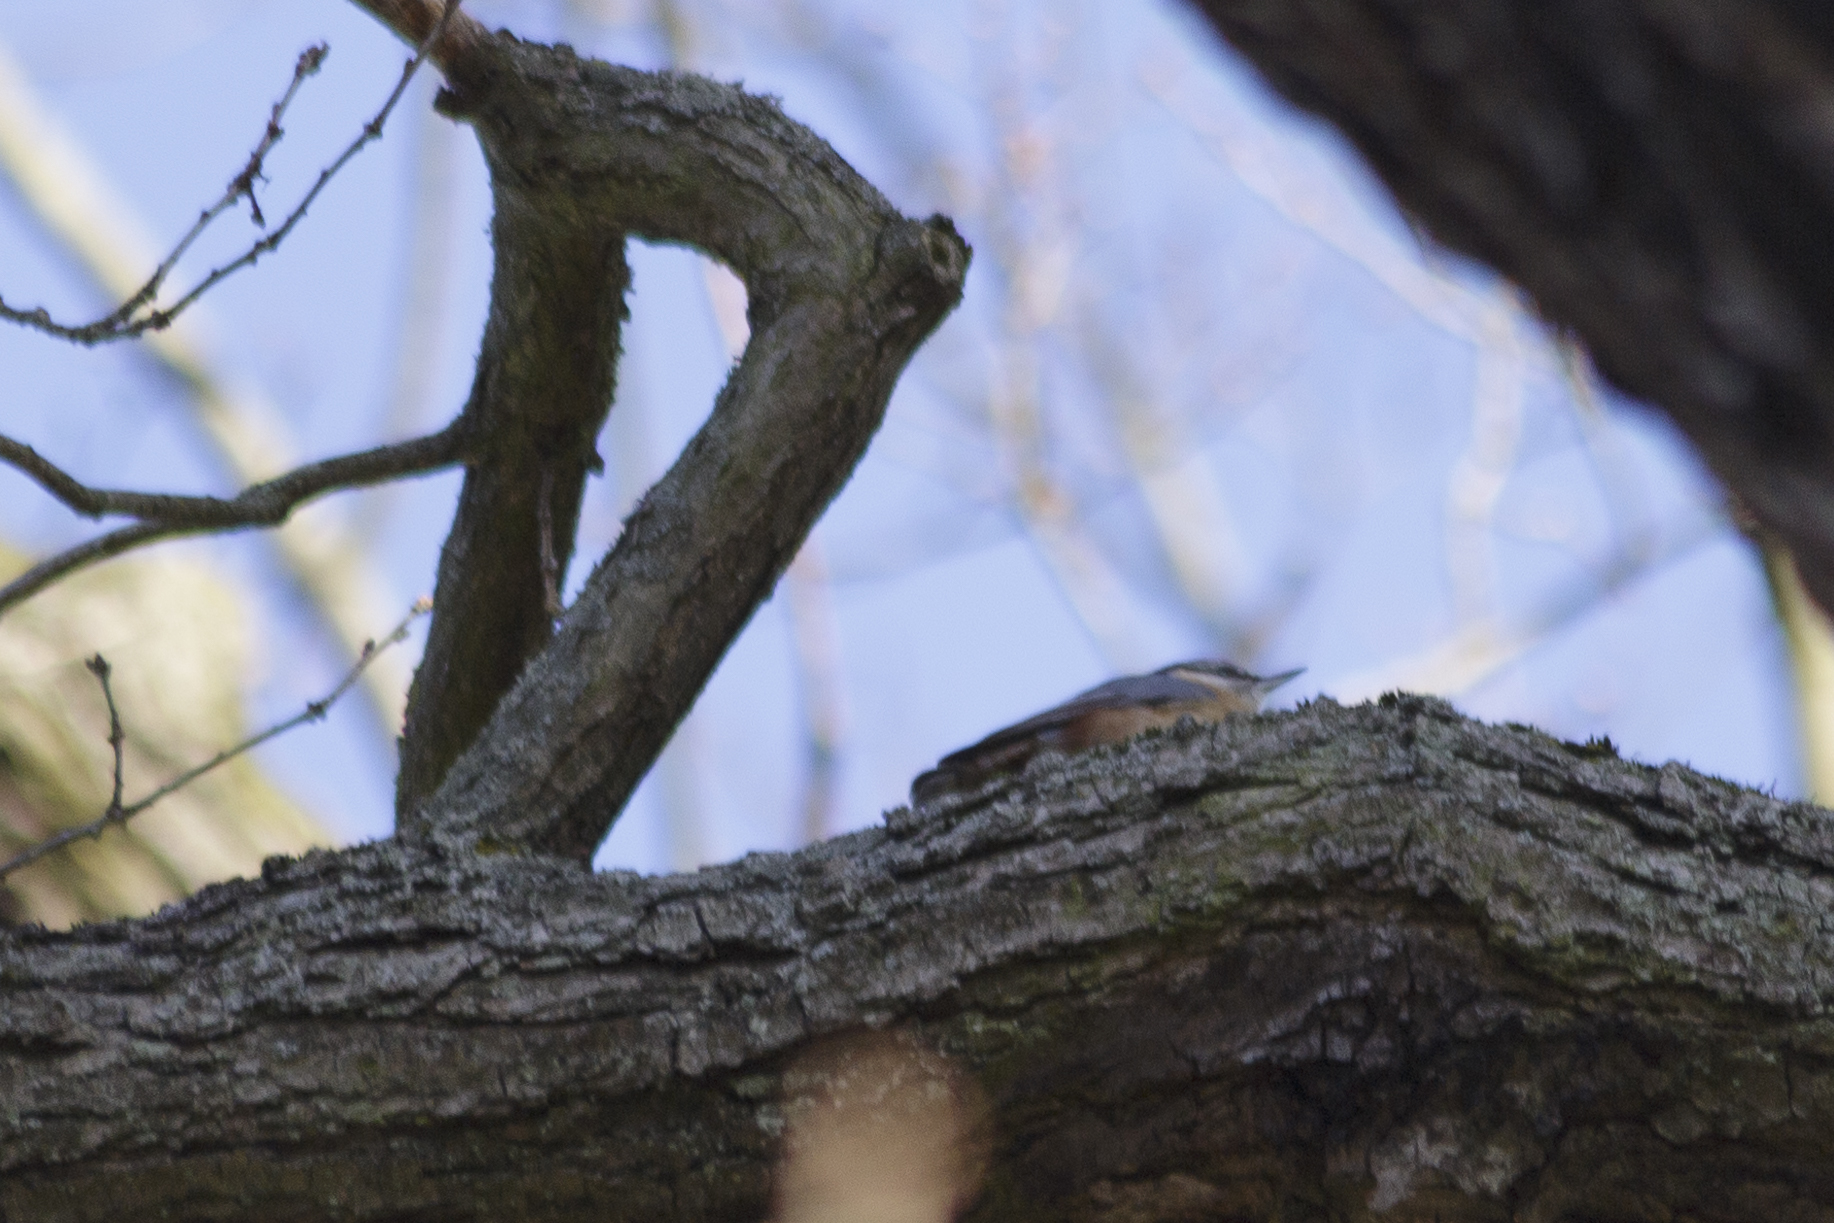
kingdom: Animalia
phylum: Chordata
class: Aves
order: Passeriformes
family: Sittidae
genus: Sitta
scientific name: Sitta europaea
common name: Eurasian nuthatch
